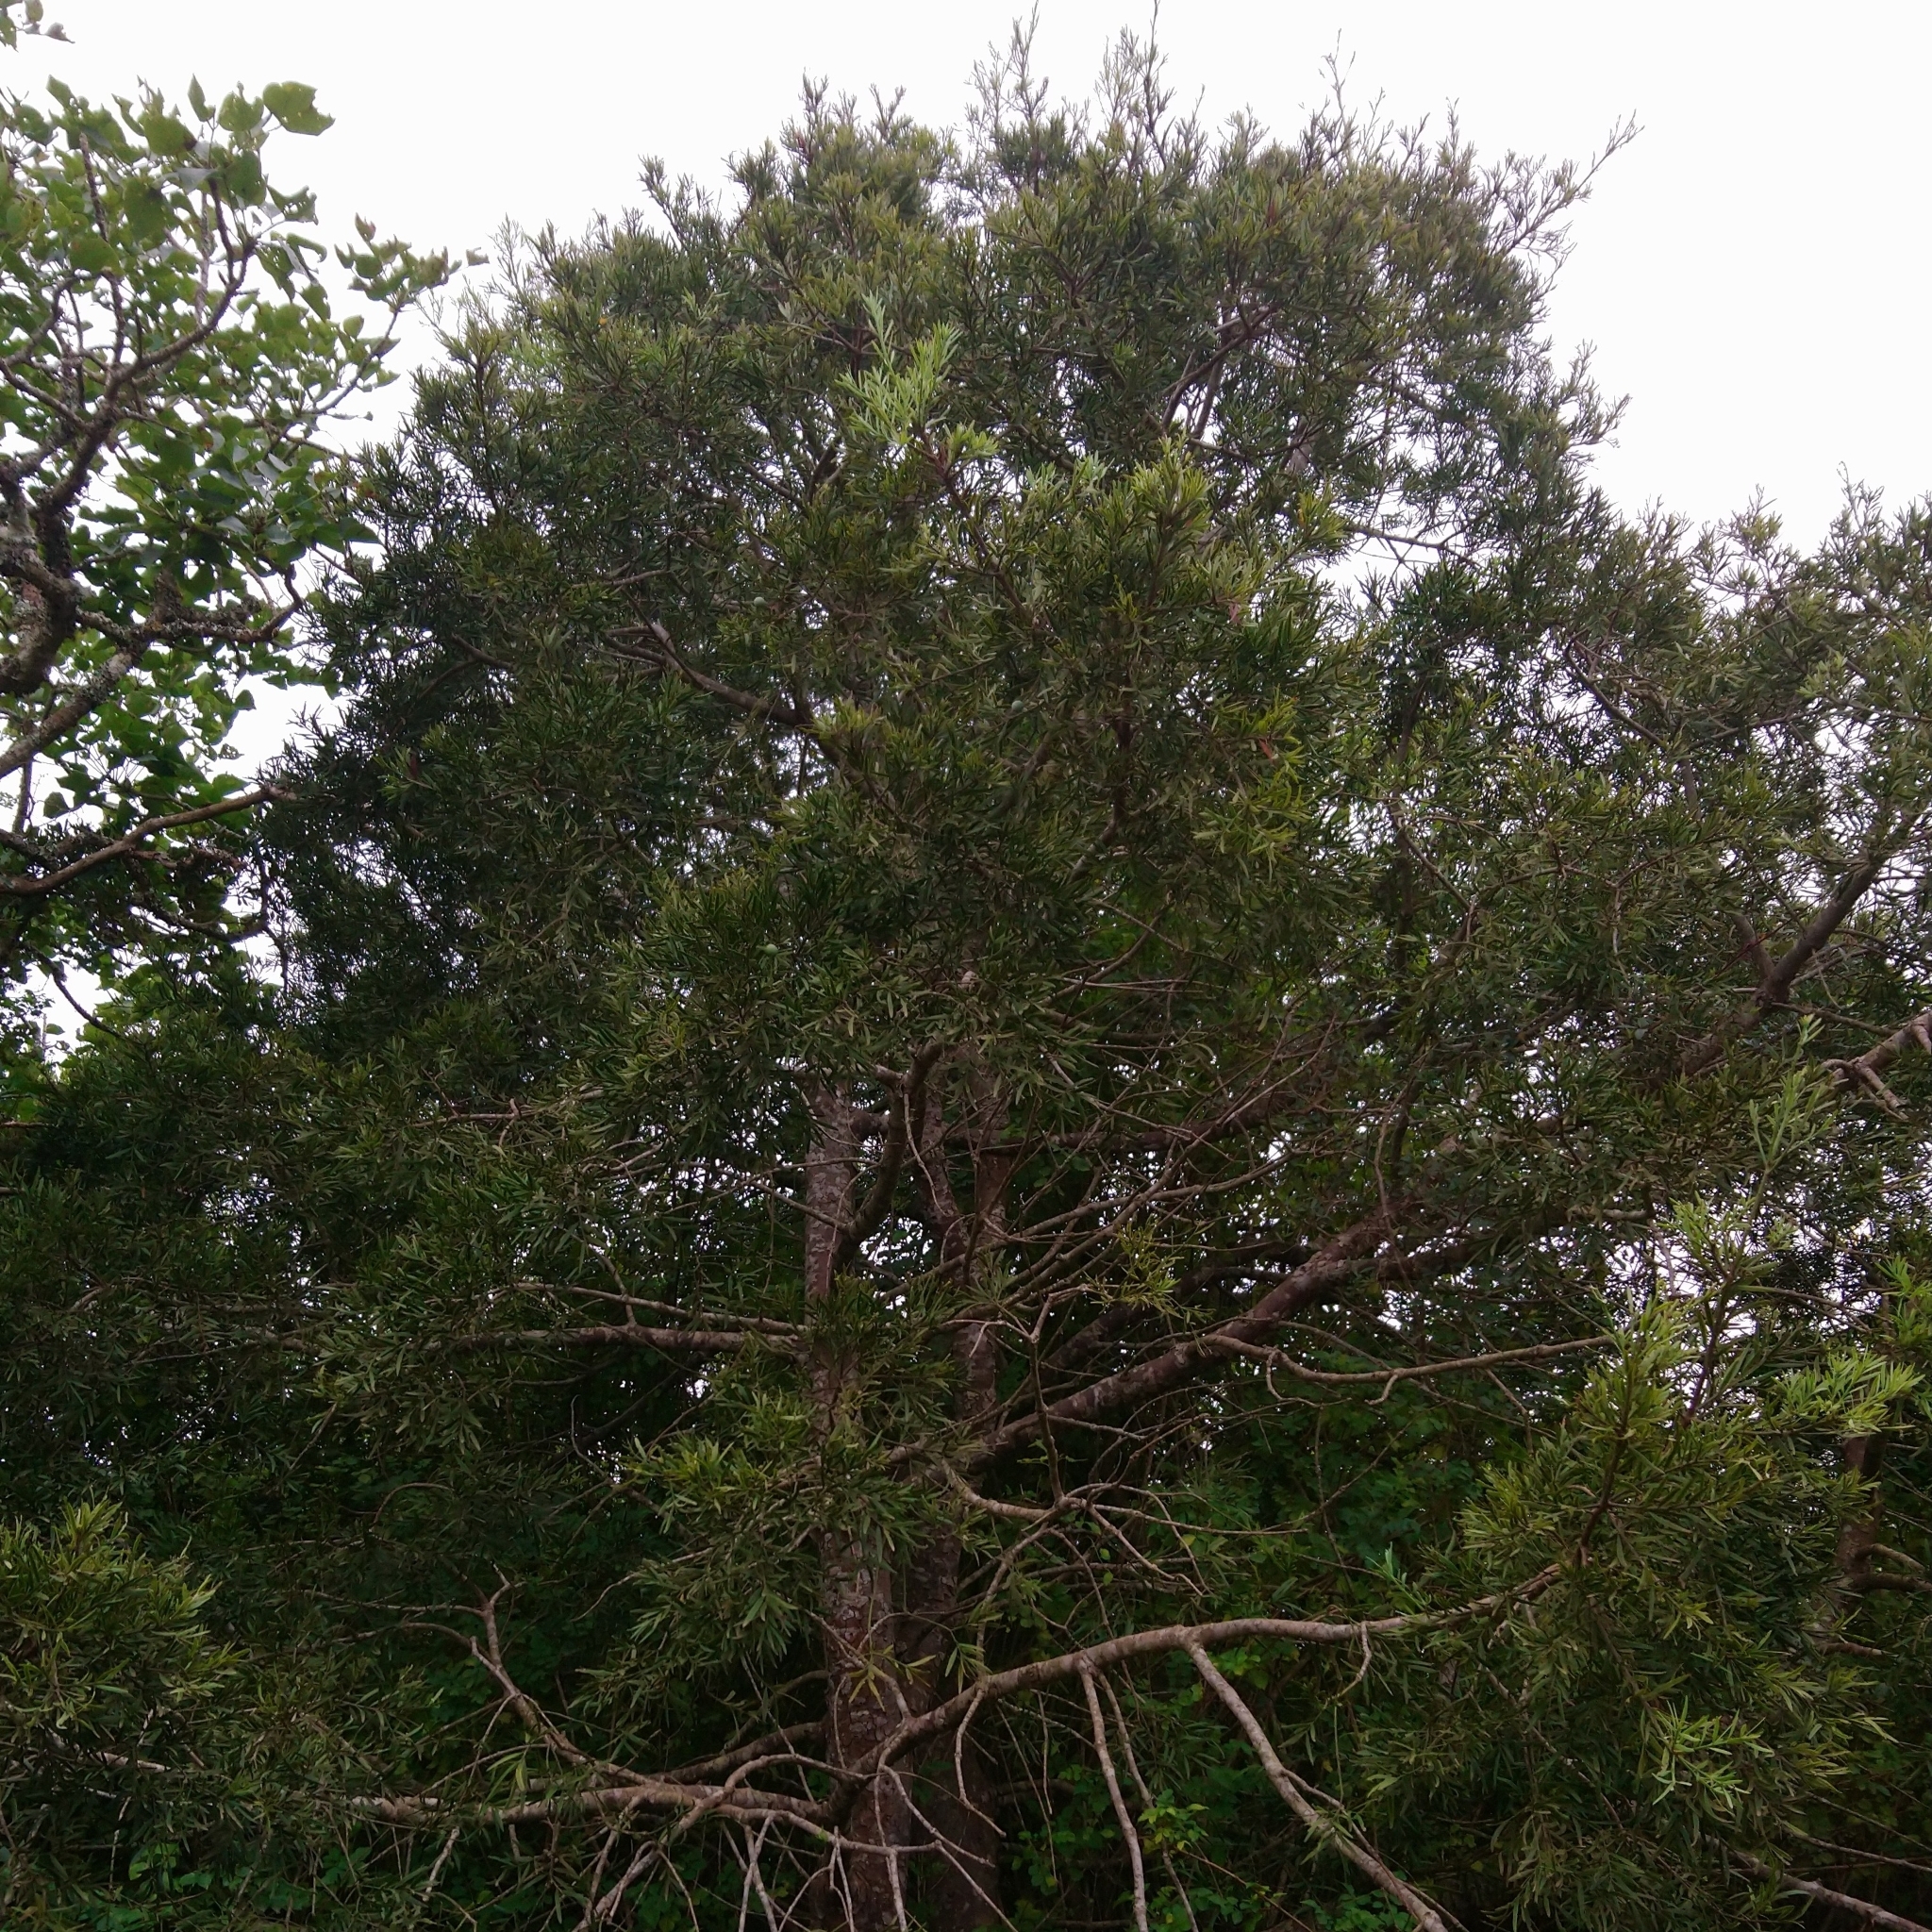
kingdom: Plantae
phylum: Tracheophyta
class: Pinopsida
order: Pinales
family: Podocarpaceae
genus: Afrocarpus
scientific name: Afrocarpus falcatus
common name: Bastard yellowwood
